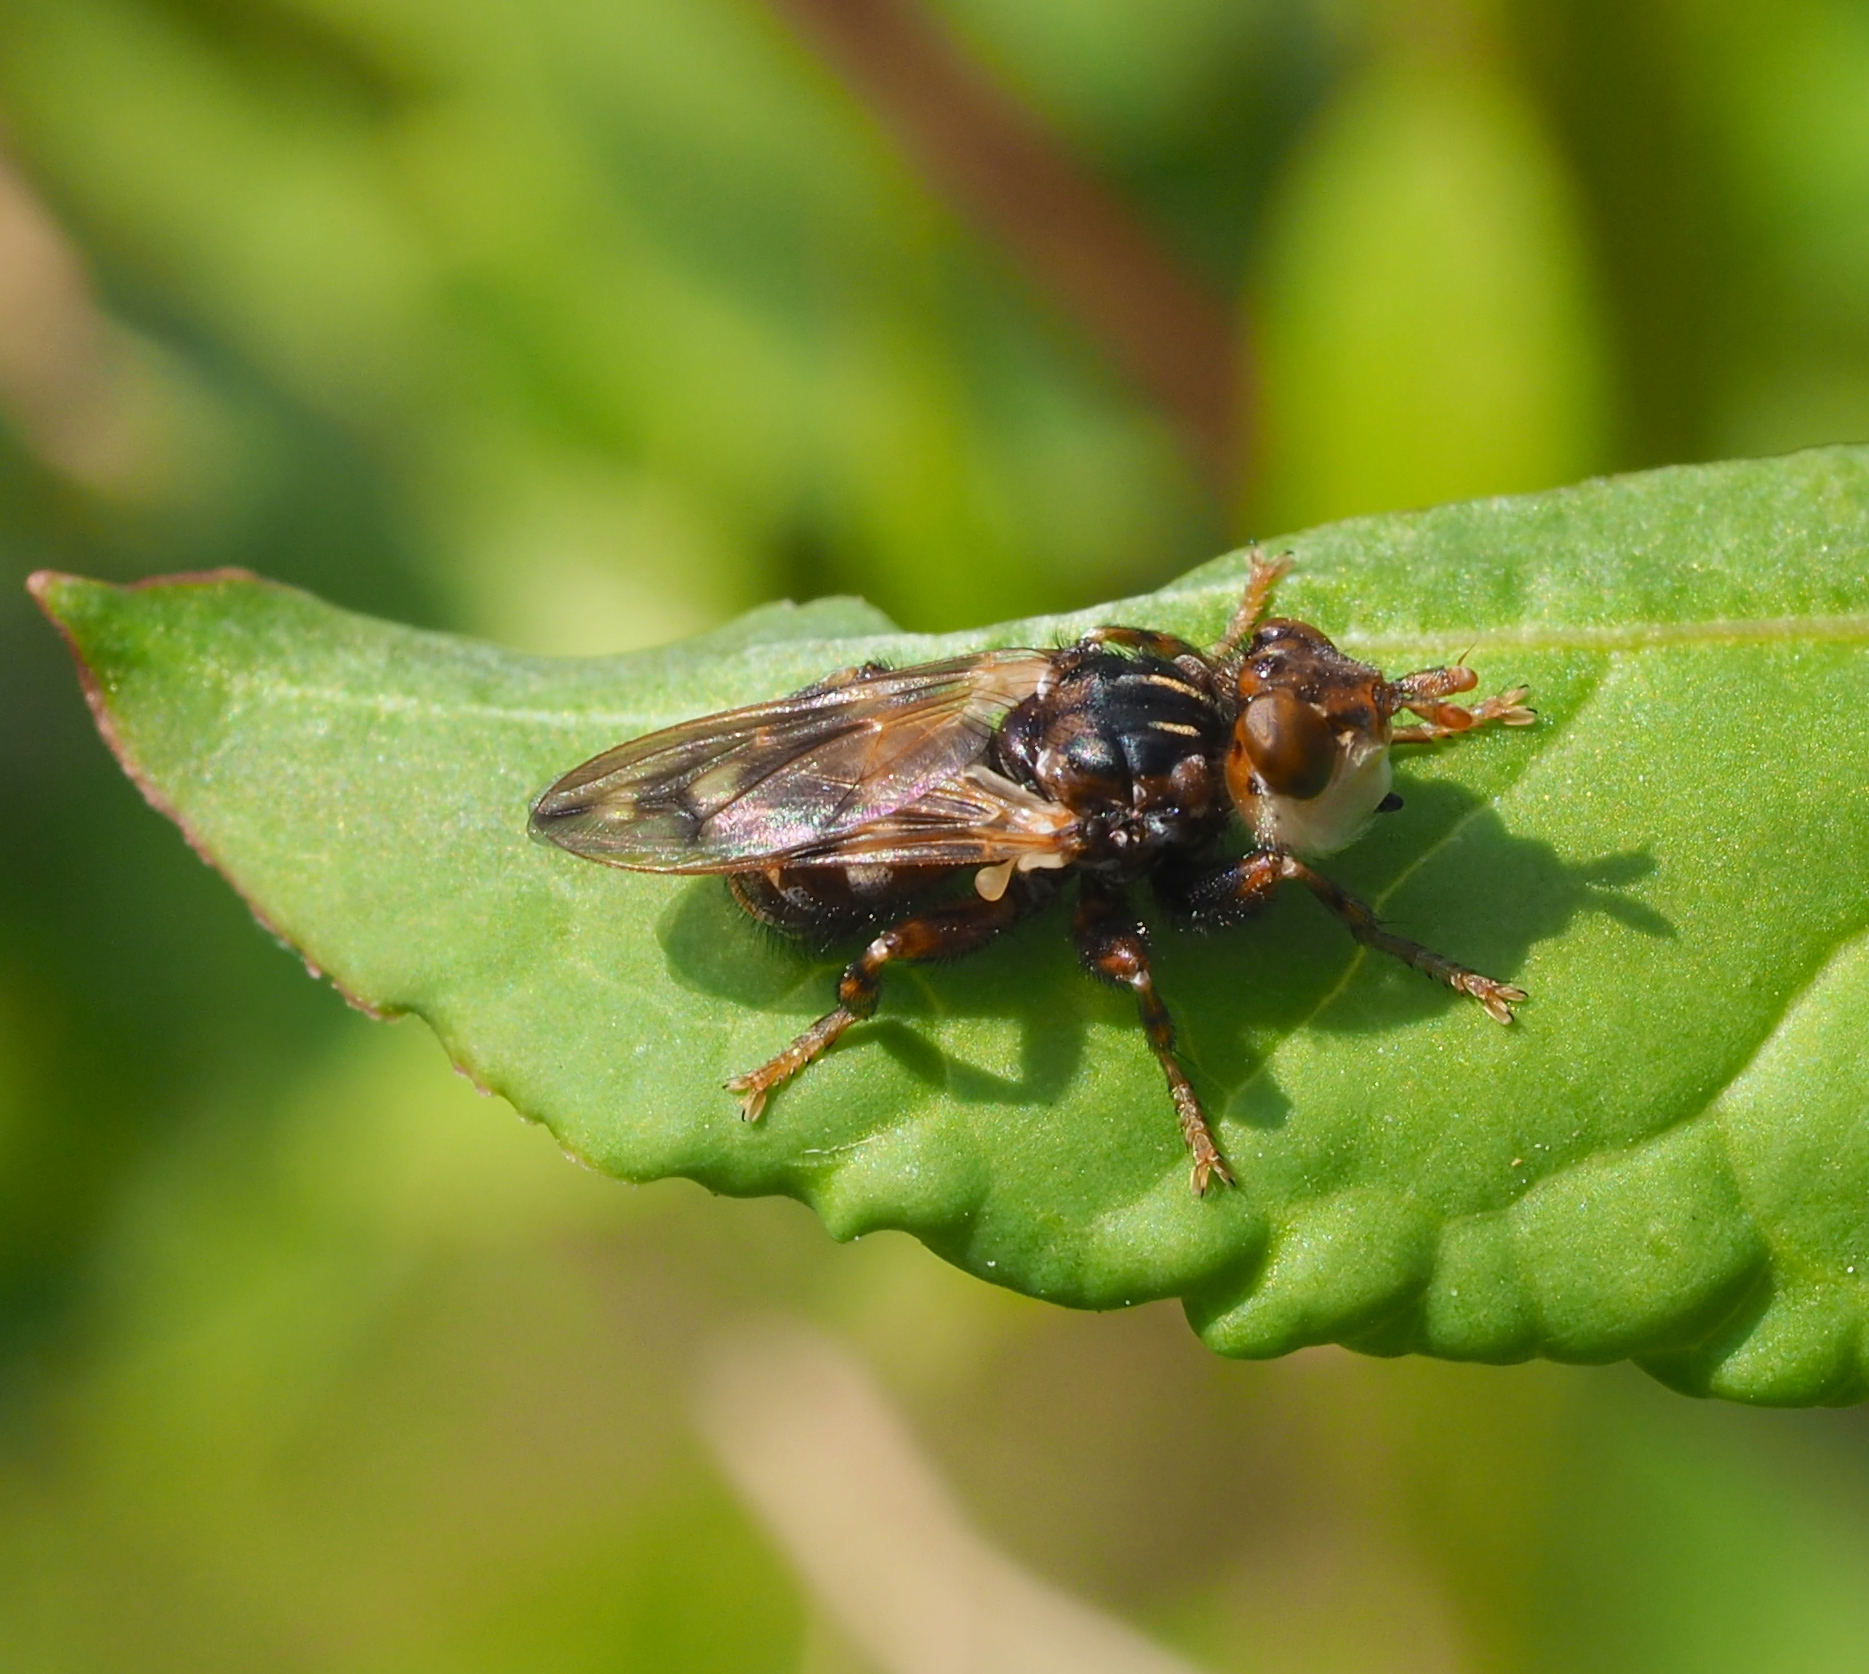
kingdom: Animalia
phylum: Arthropoda
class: Insecta
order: Diptera
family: Conopidae
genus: Myopa
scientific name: Myopa buccata
